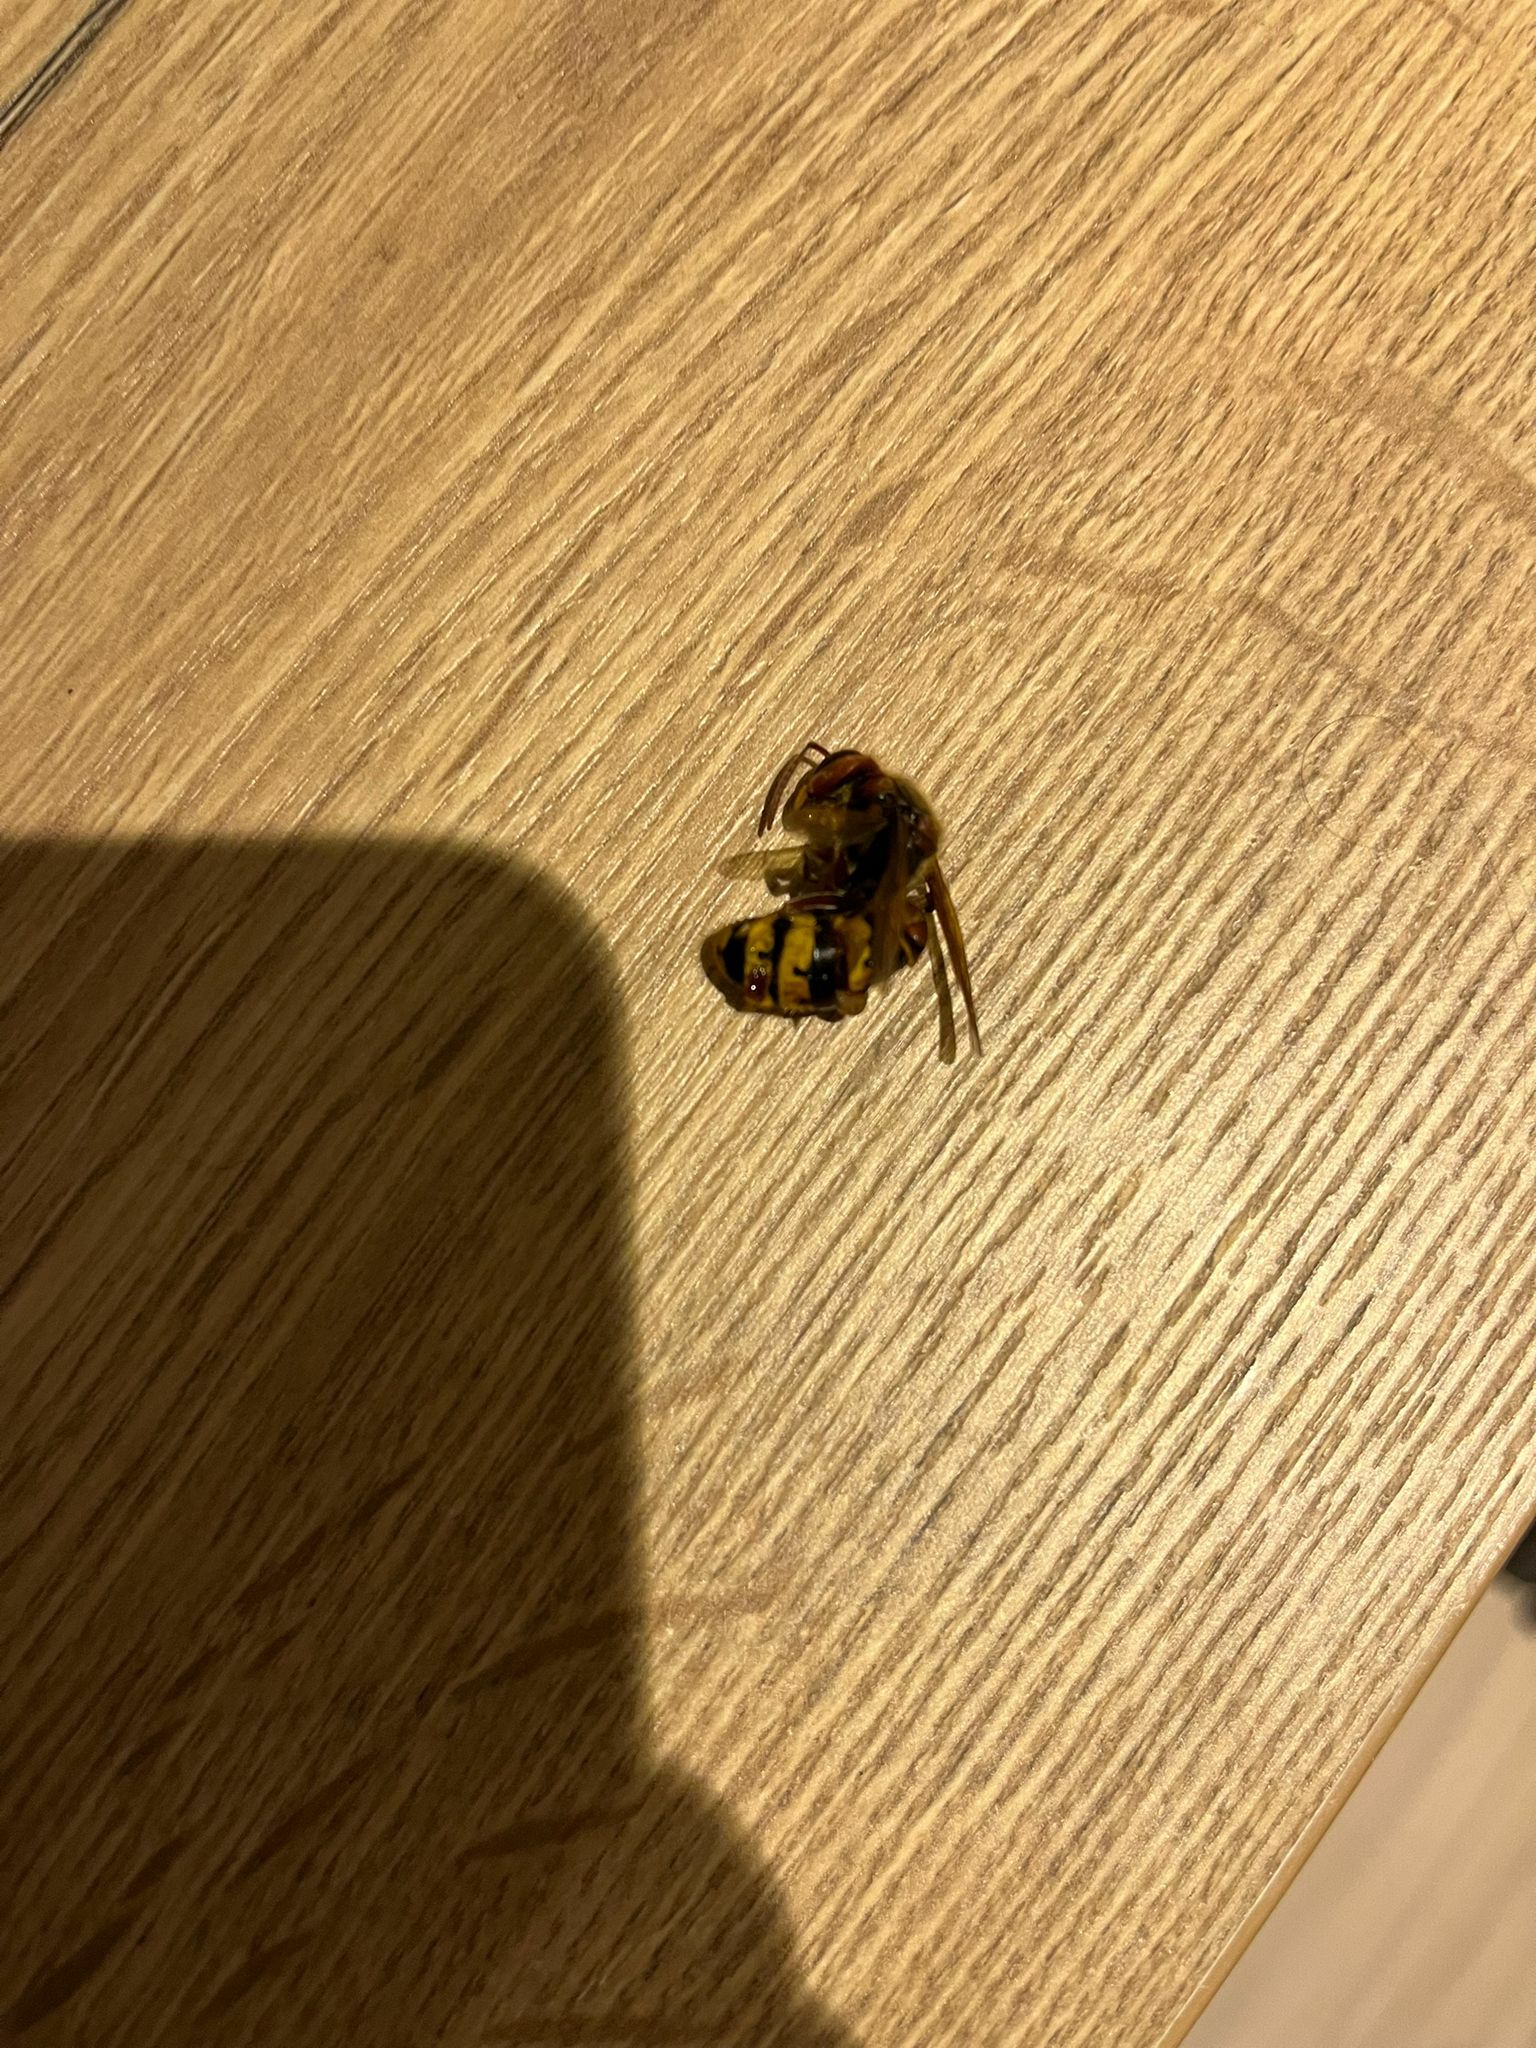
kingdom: Animalia
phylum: Arthropoda
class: Insecta
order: Hymenoptera
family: Vespidae
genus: Vespa
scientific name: Vespa crabro
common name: Hornet
